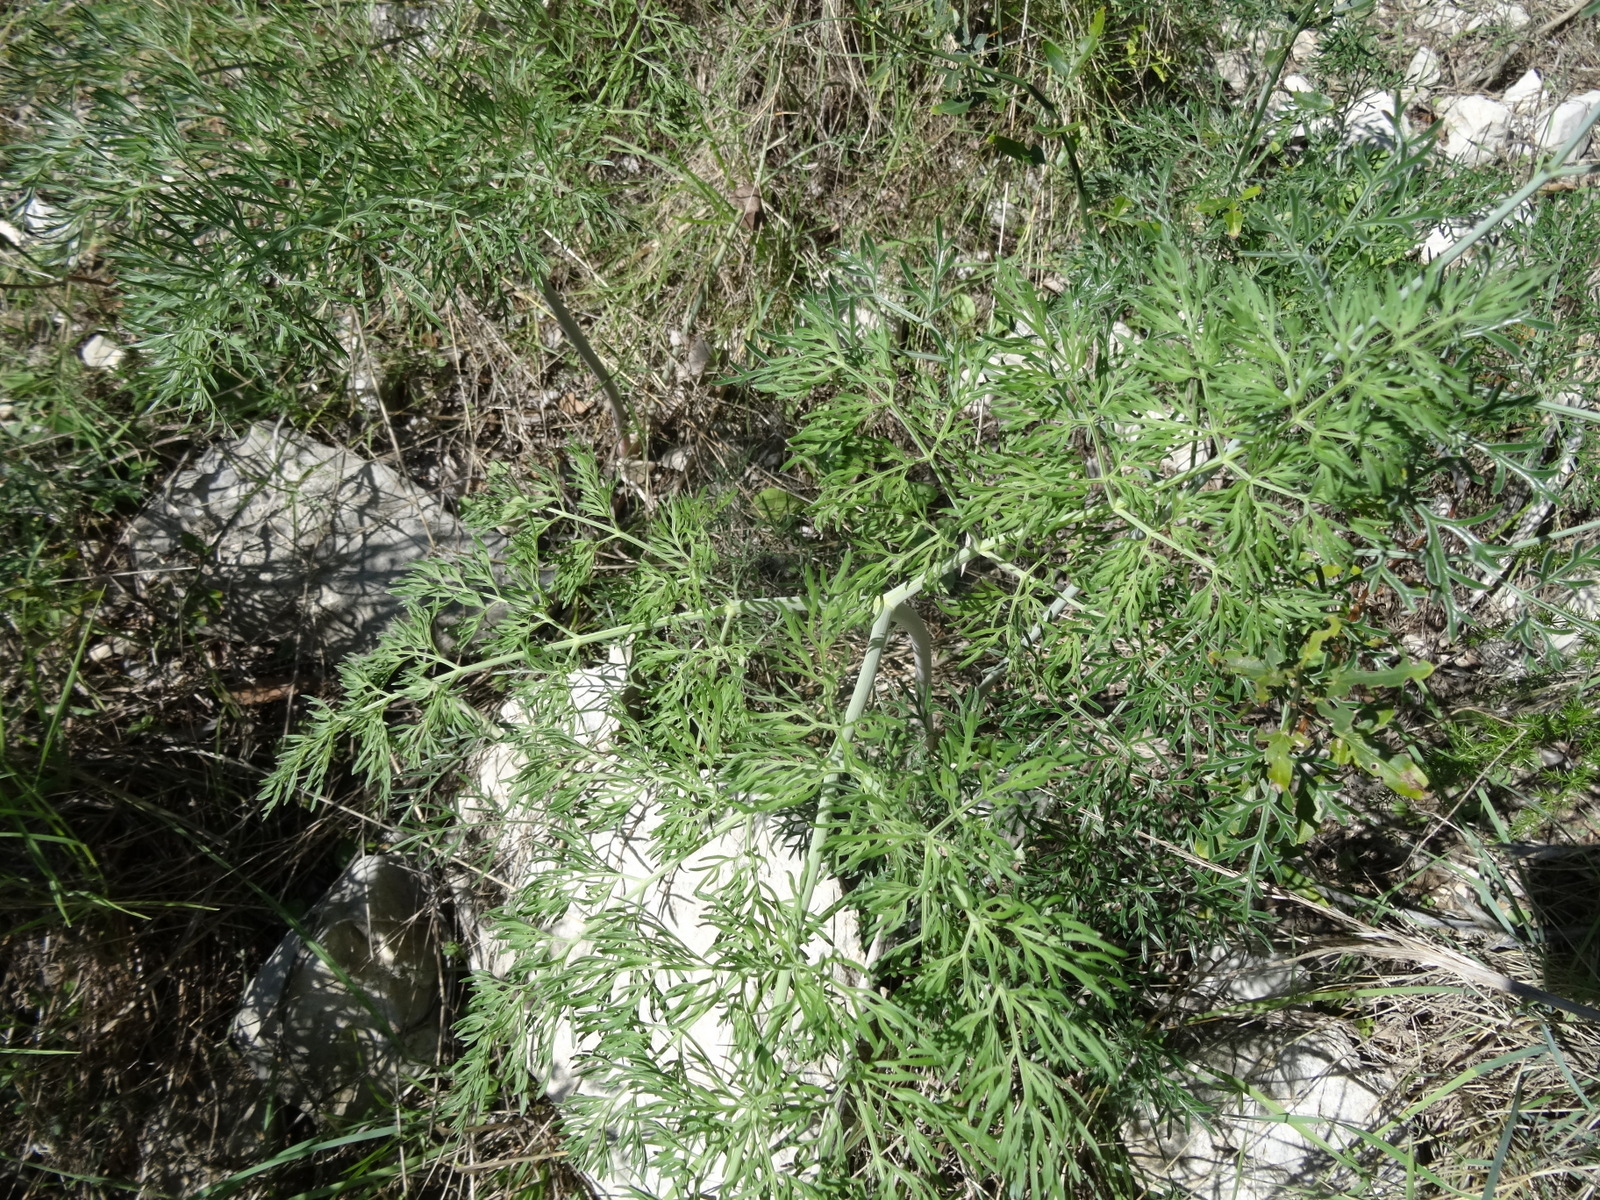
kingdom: Plantae
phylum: Tracheophyta
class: Magnoliopsida
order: Apiales
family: Apiaceae
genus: Ferula
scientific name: Ferula glauca
